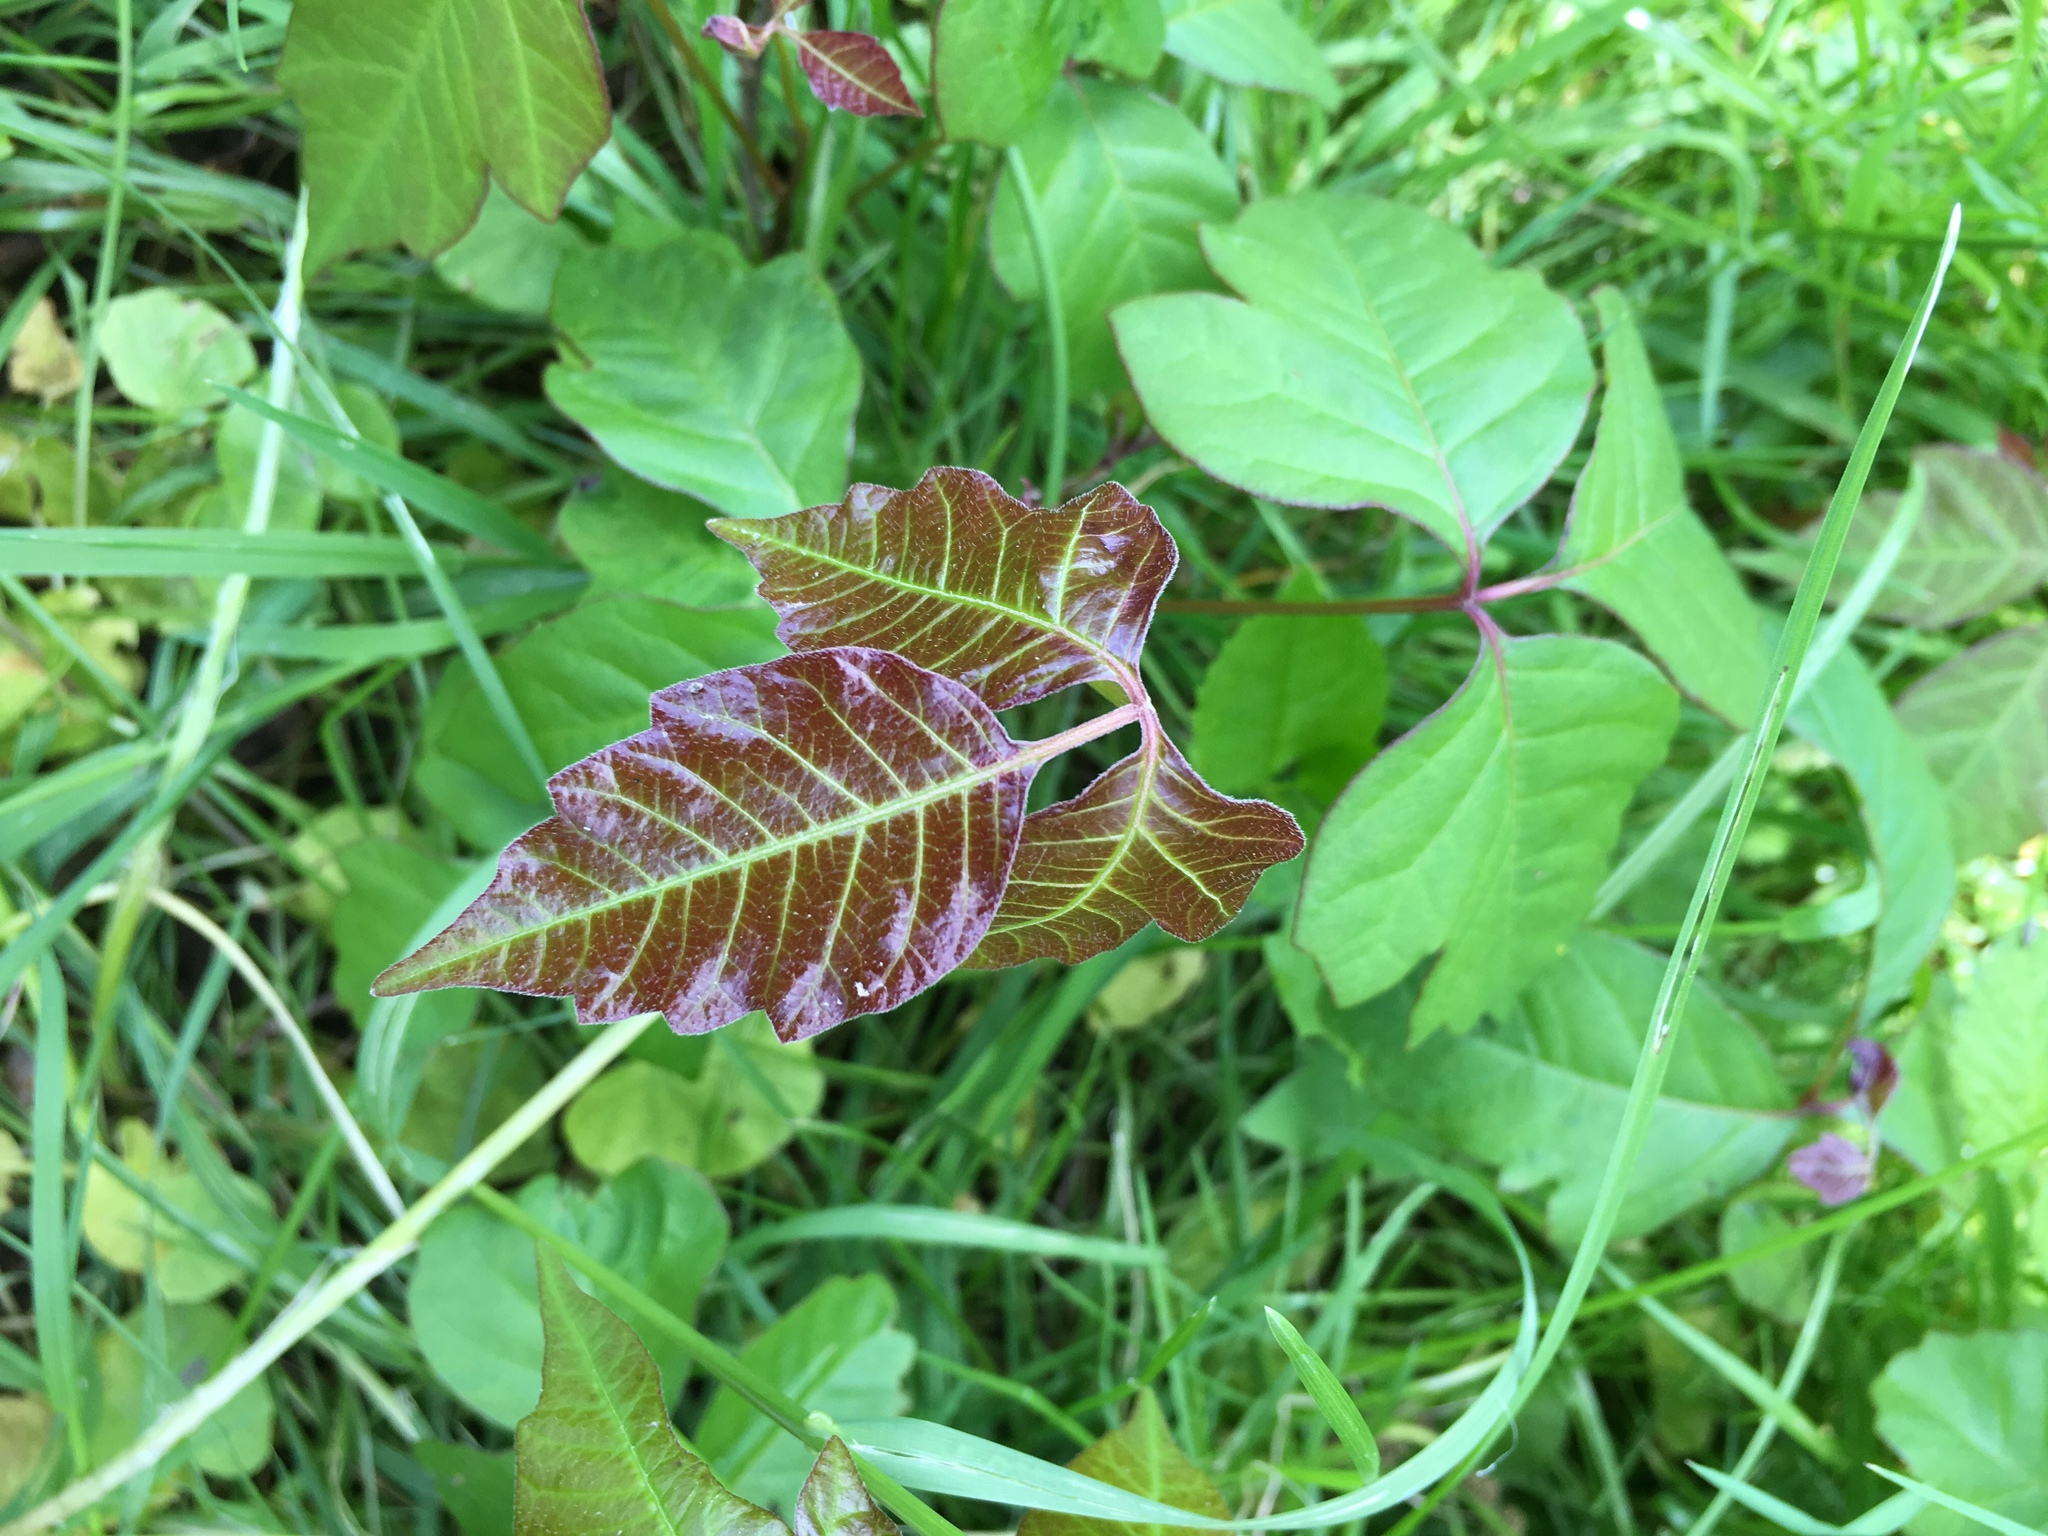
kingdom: Plantae
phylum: Tracheophyta
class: Magnoliopsida
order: Sapindales
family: Anacardiaceae
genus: Toxicodendron
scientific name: Toxicodendron radicans
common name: Poison ivy
